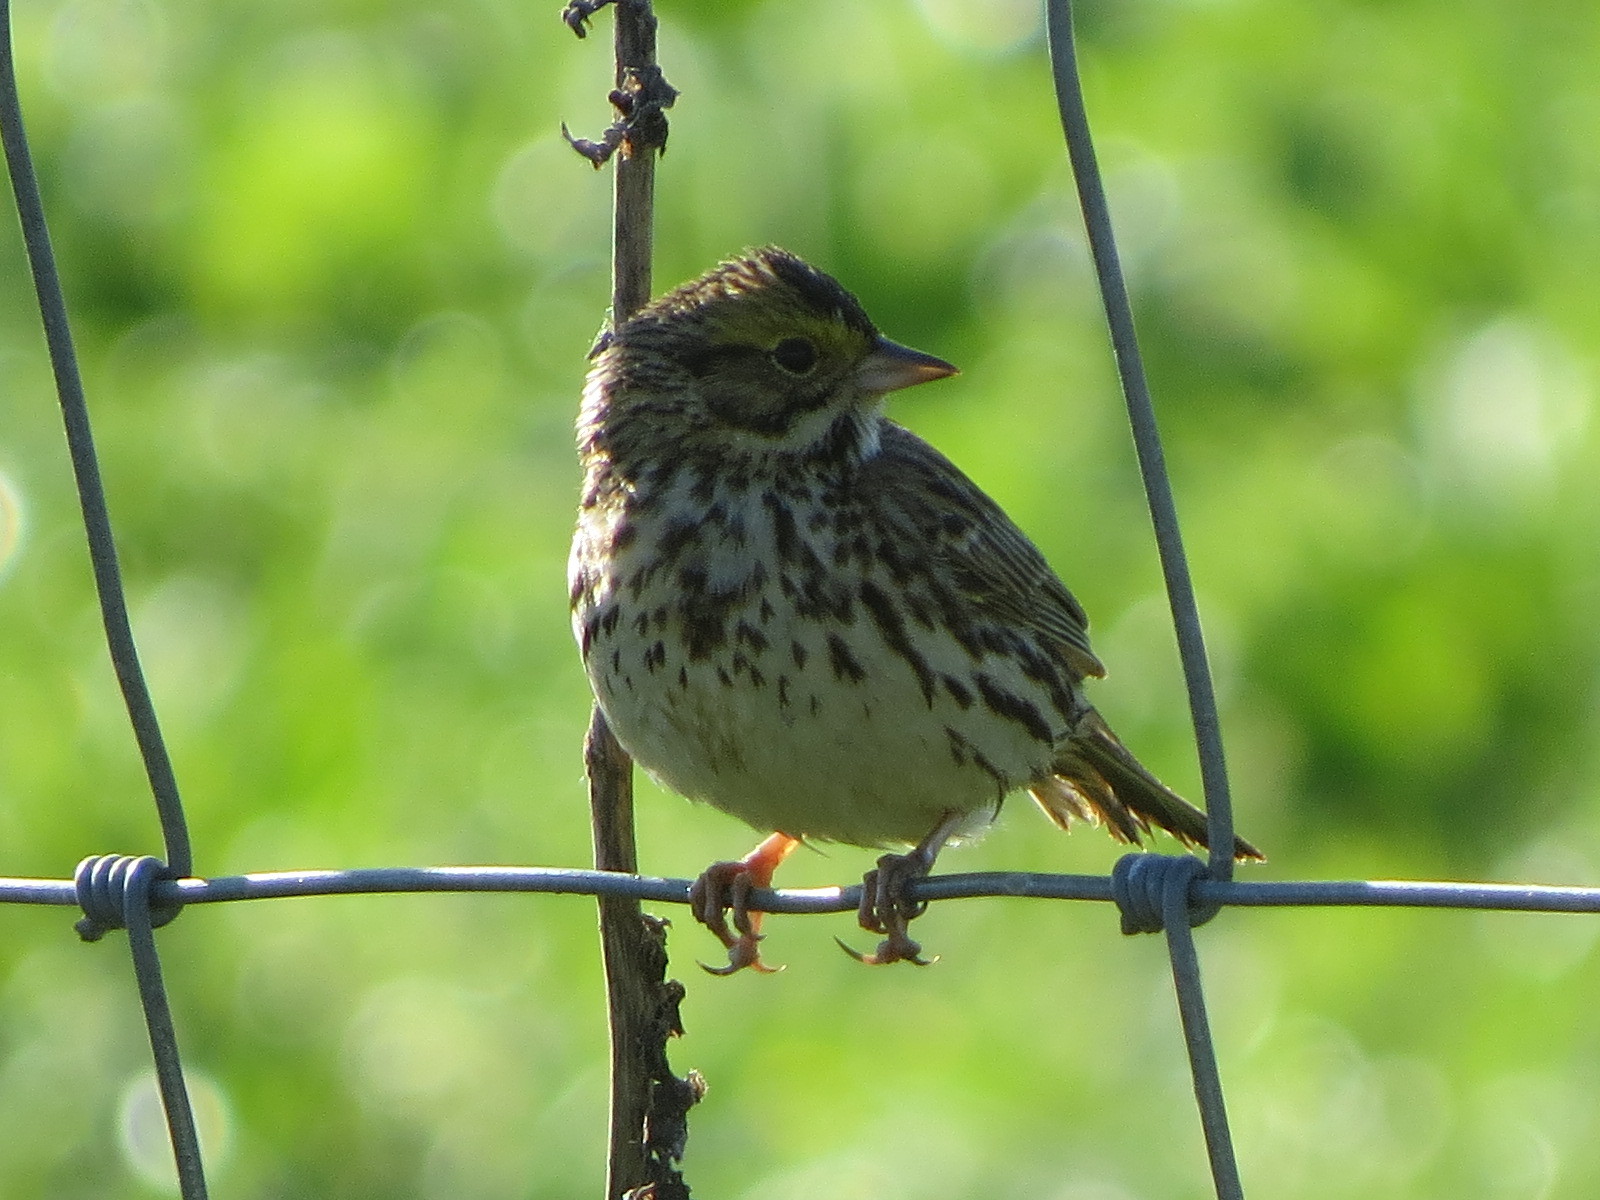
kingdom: Animalia
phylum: Chordata
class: Aves
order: Passeriformes
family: Passerellidae
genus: Passerculus
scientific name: Passerculus sandwichensis
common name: Savannah sparrow
